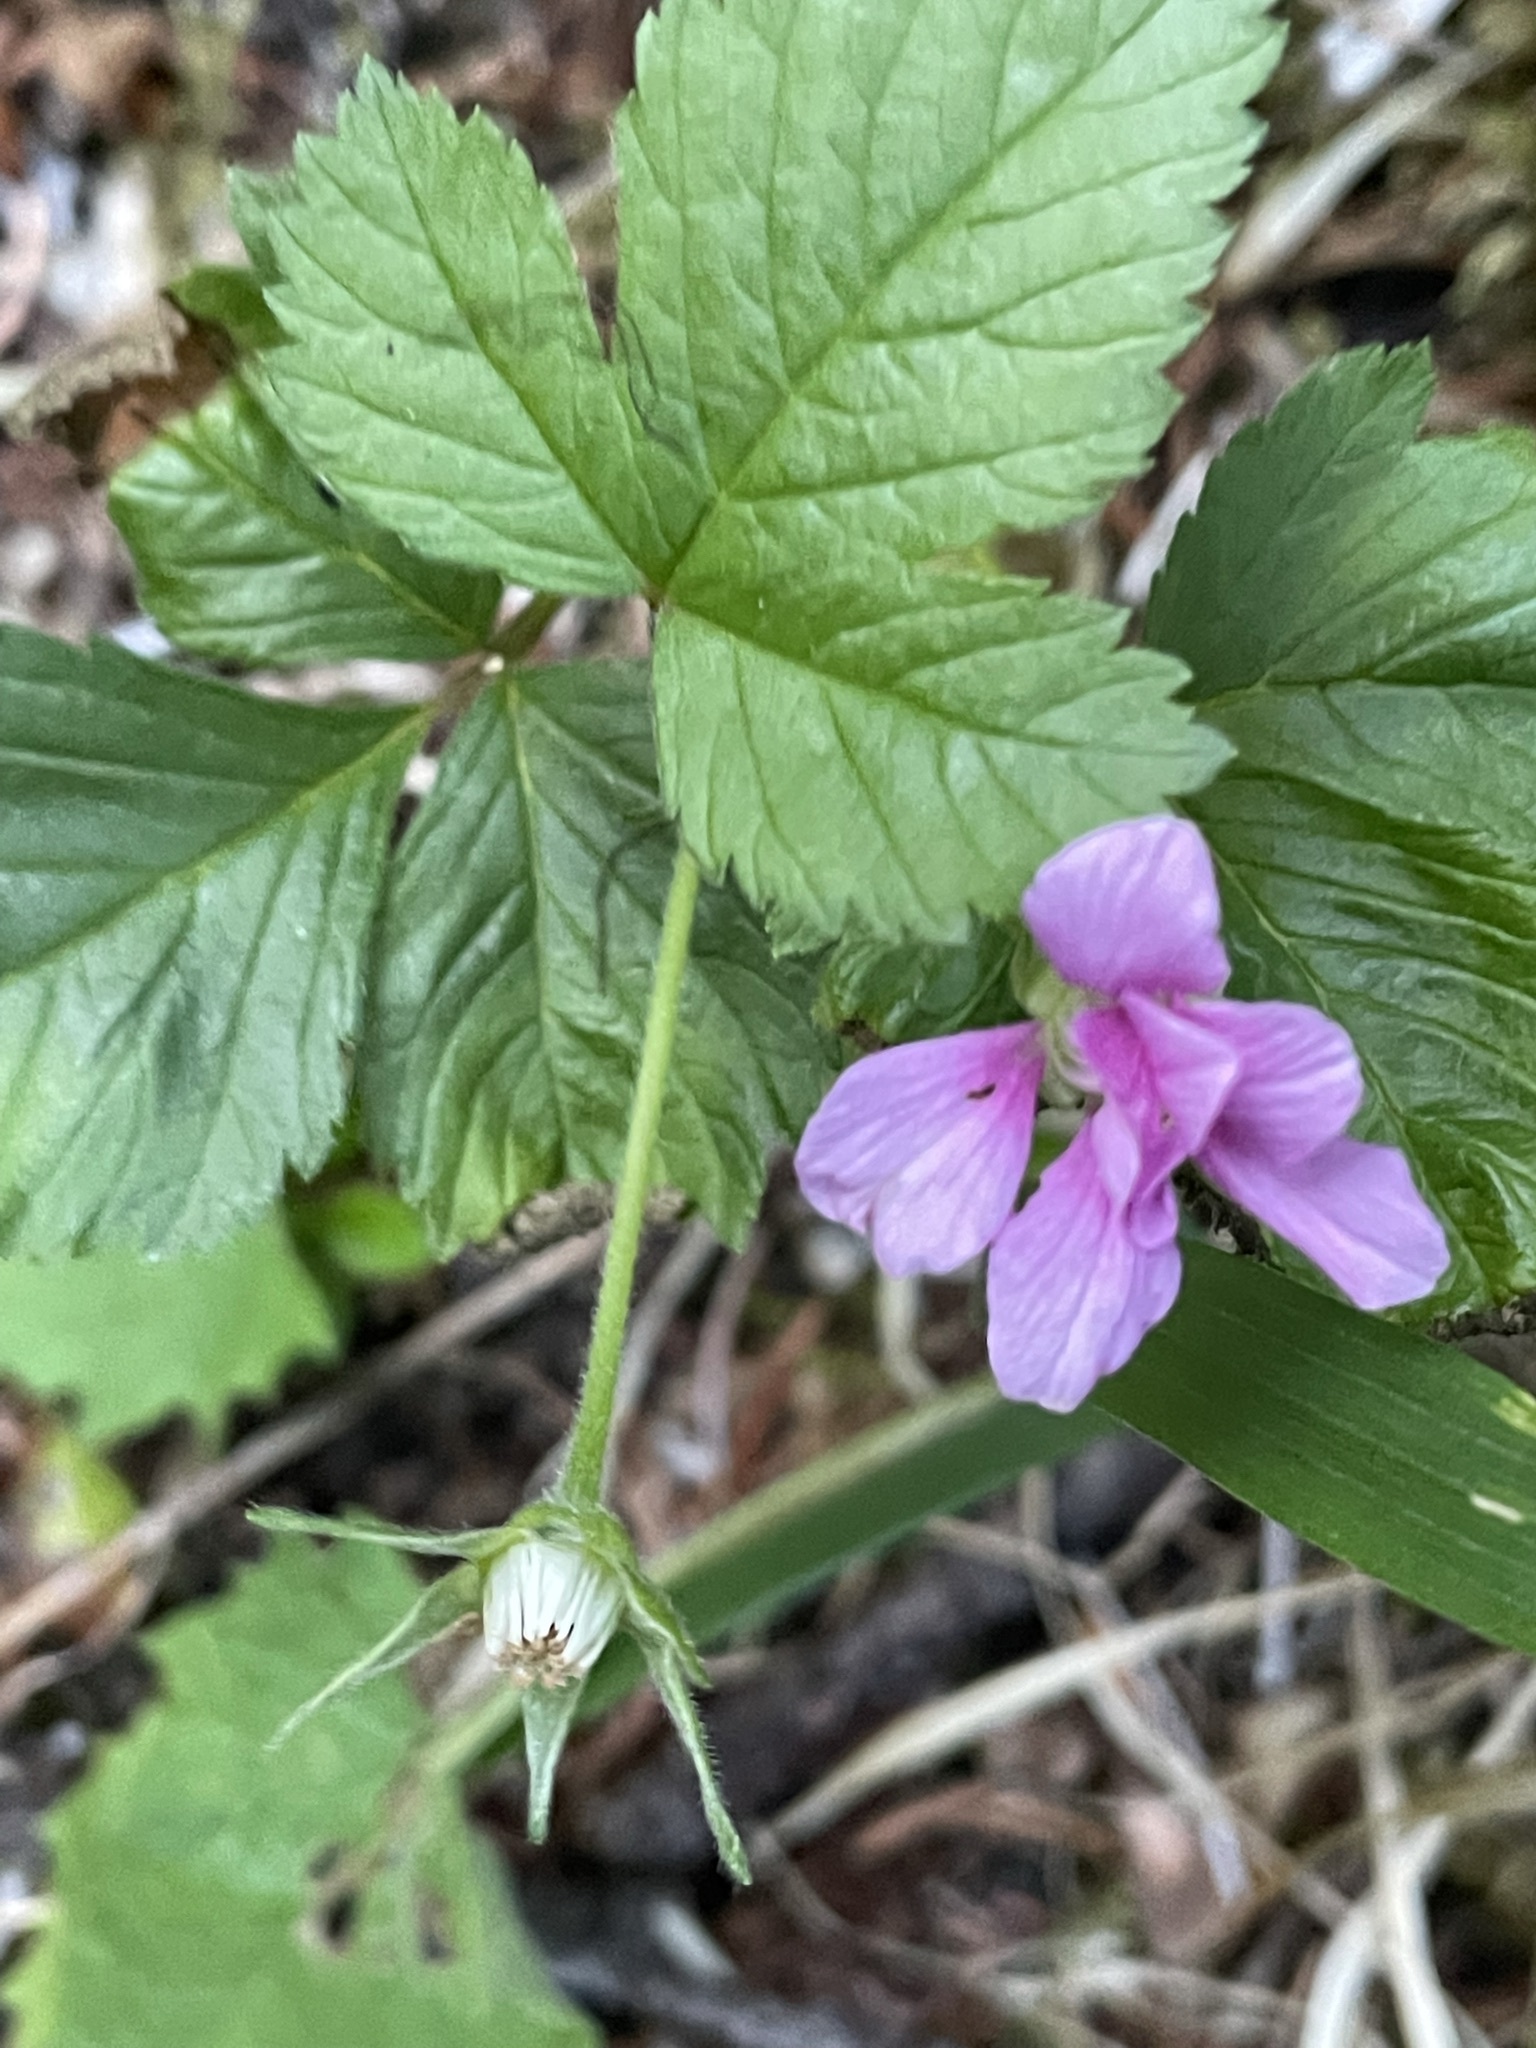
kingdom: Plantae
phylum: Tracheophyta
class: Magnoliopsida
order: Rosales
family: Rosaceae
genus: Rubus
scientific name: Rubus arcticus
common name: Arctic bramble
